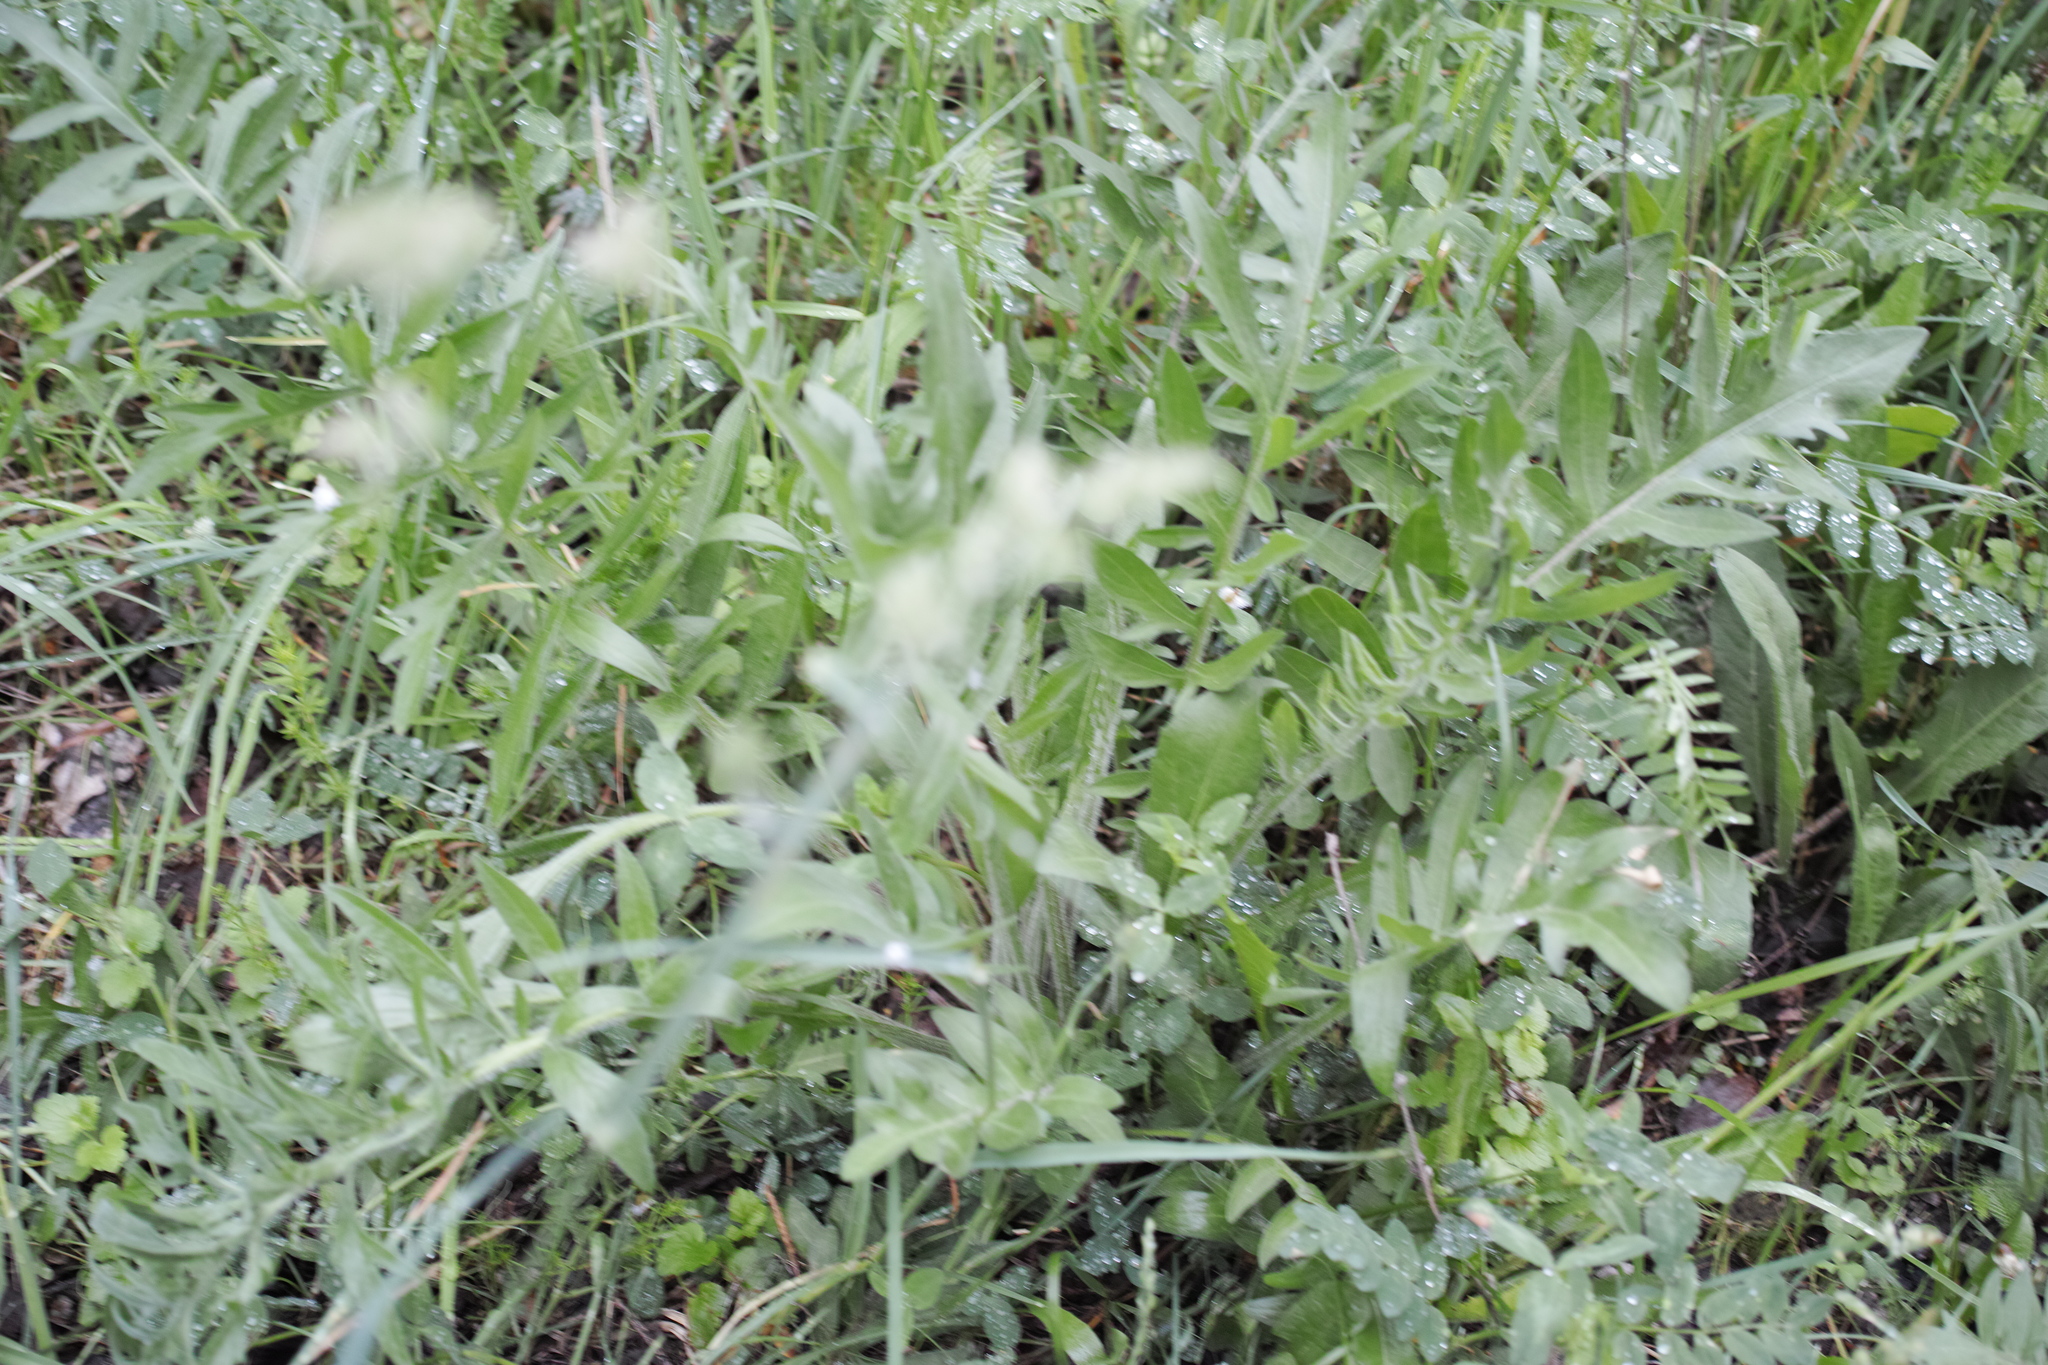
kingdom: Plantae
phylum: Tracheophyta
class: Magnoliopsida
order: Asterales
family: Asteraceae
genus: Centaurea
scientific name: Centaurea scabiosa
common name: Greater knapweed
